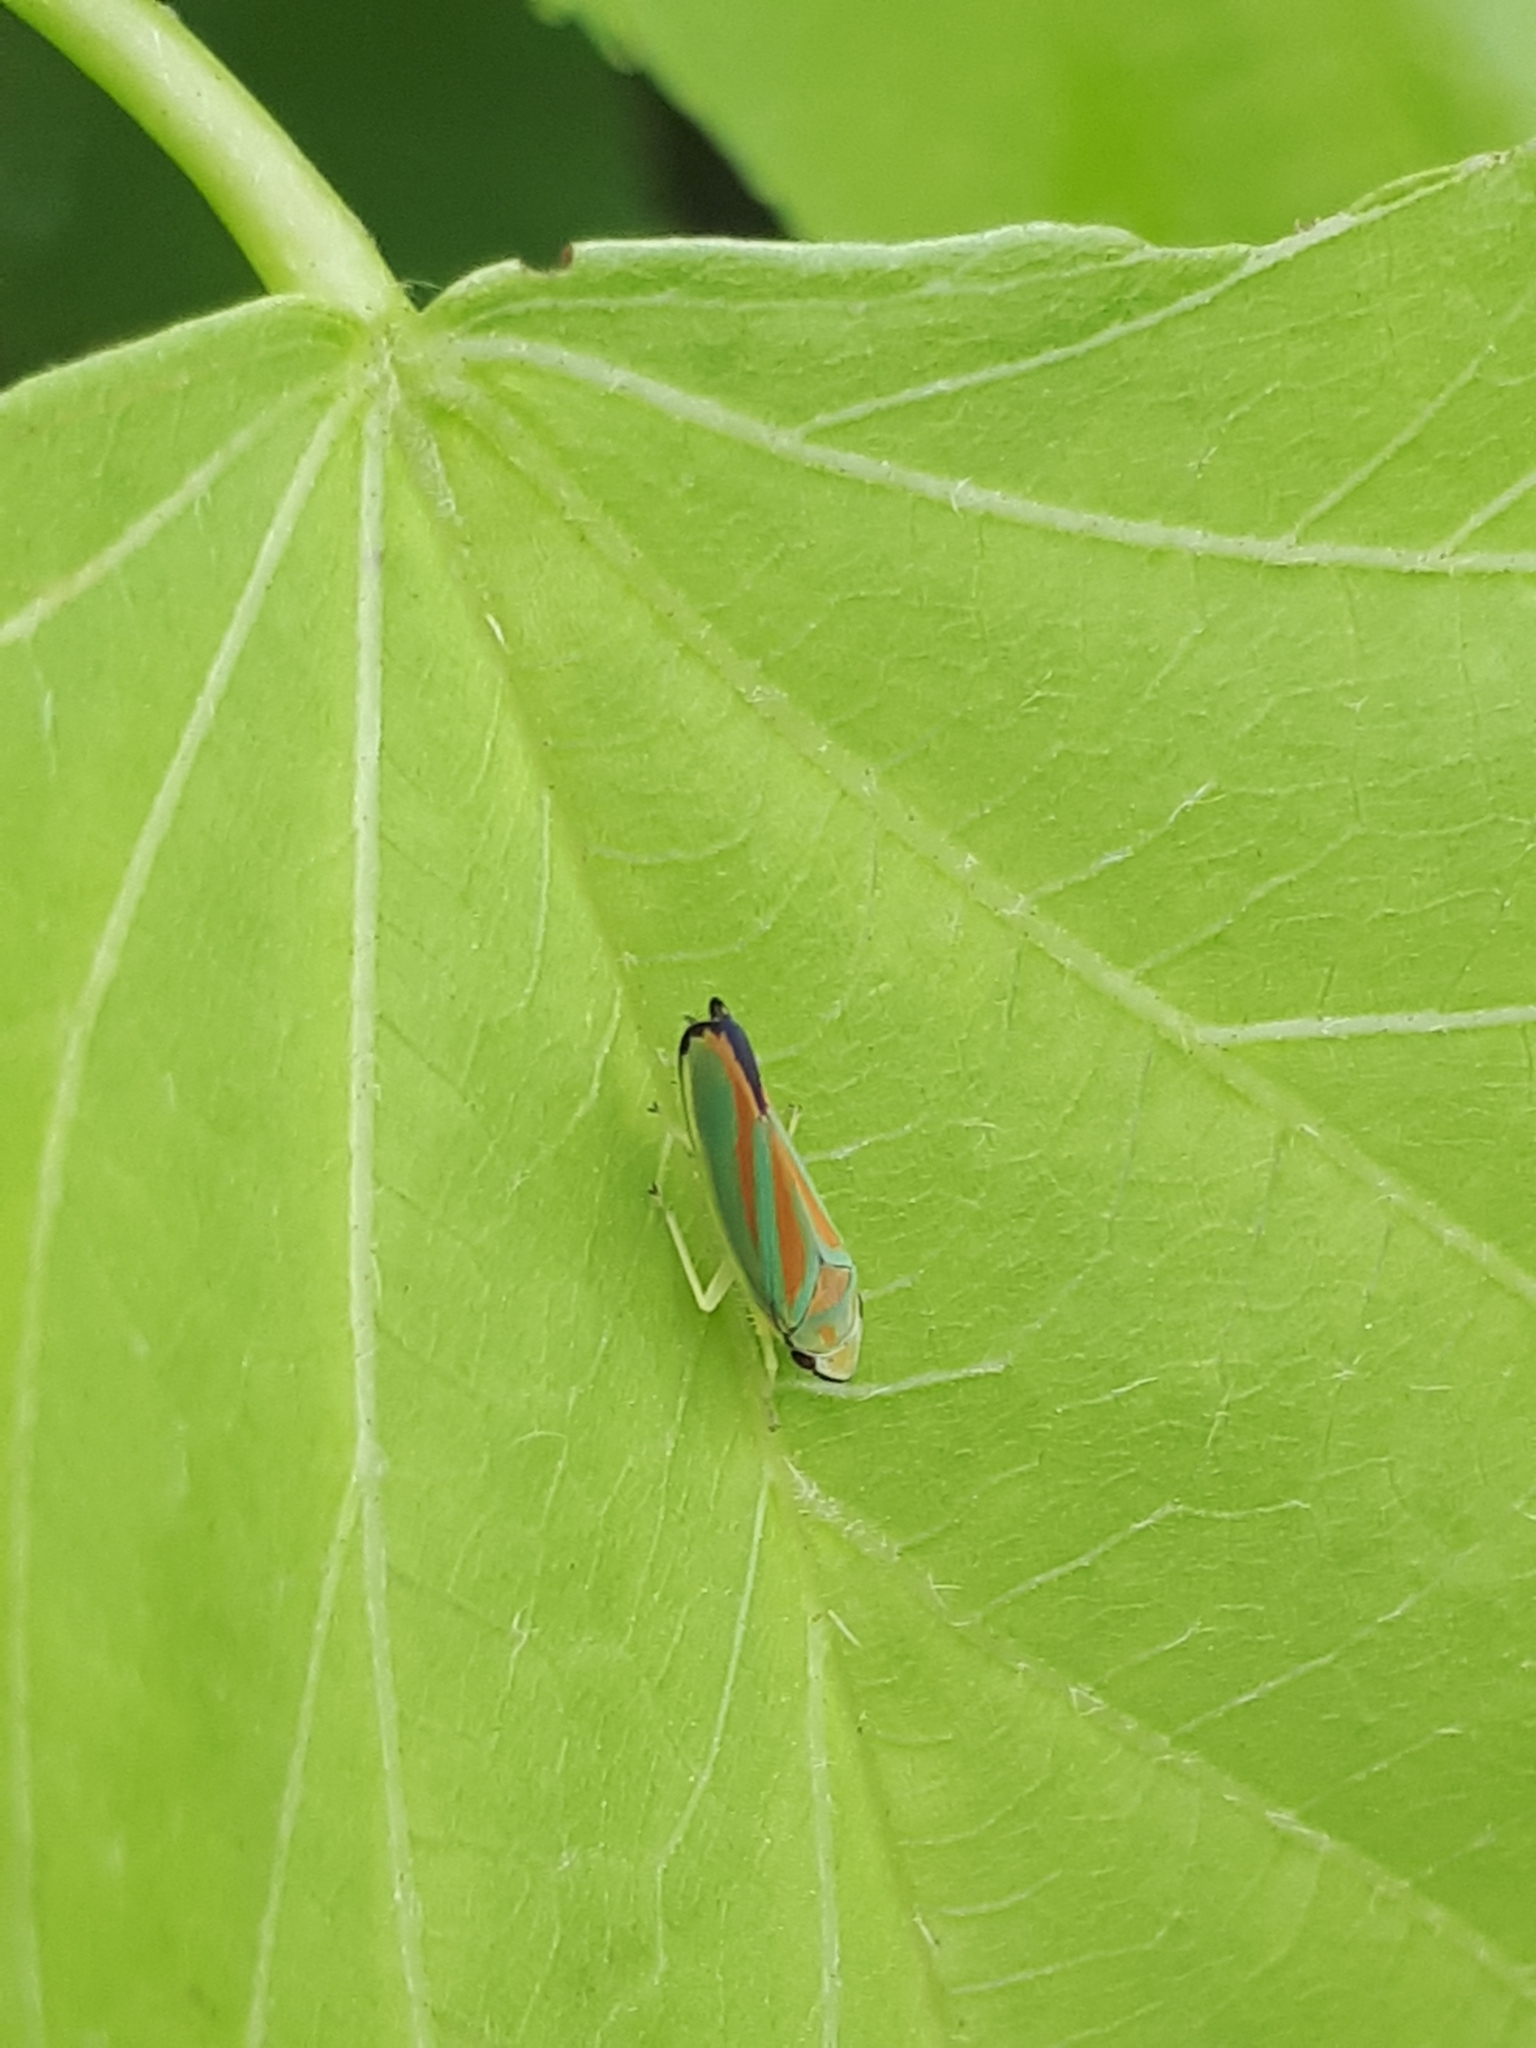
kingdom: Animalia
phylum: Arthropoda
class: Insecta
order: Hemiptera
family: Cicadellidae
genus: Graphocephala
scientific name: Graphocephala fennahi
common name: Rhododendron leafhopper
